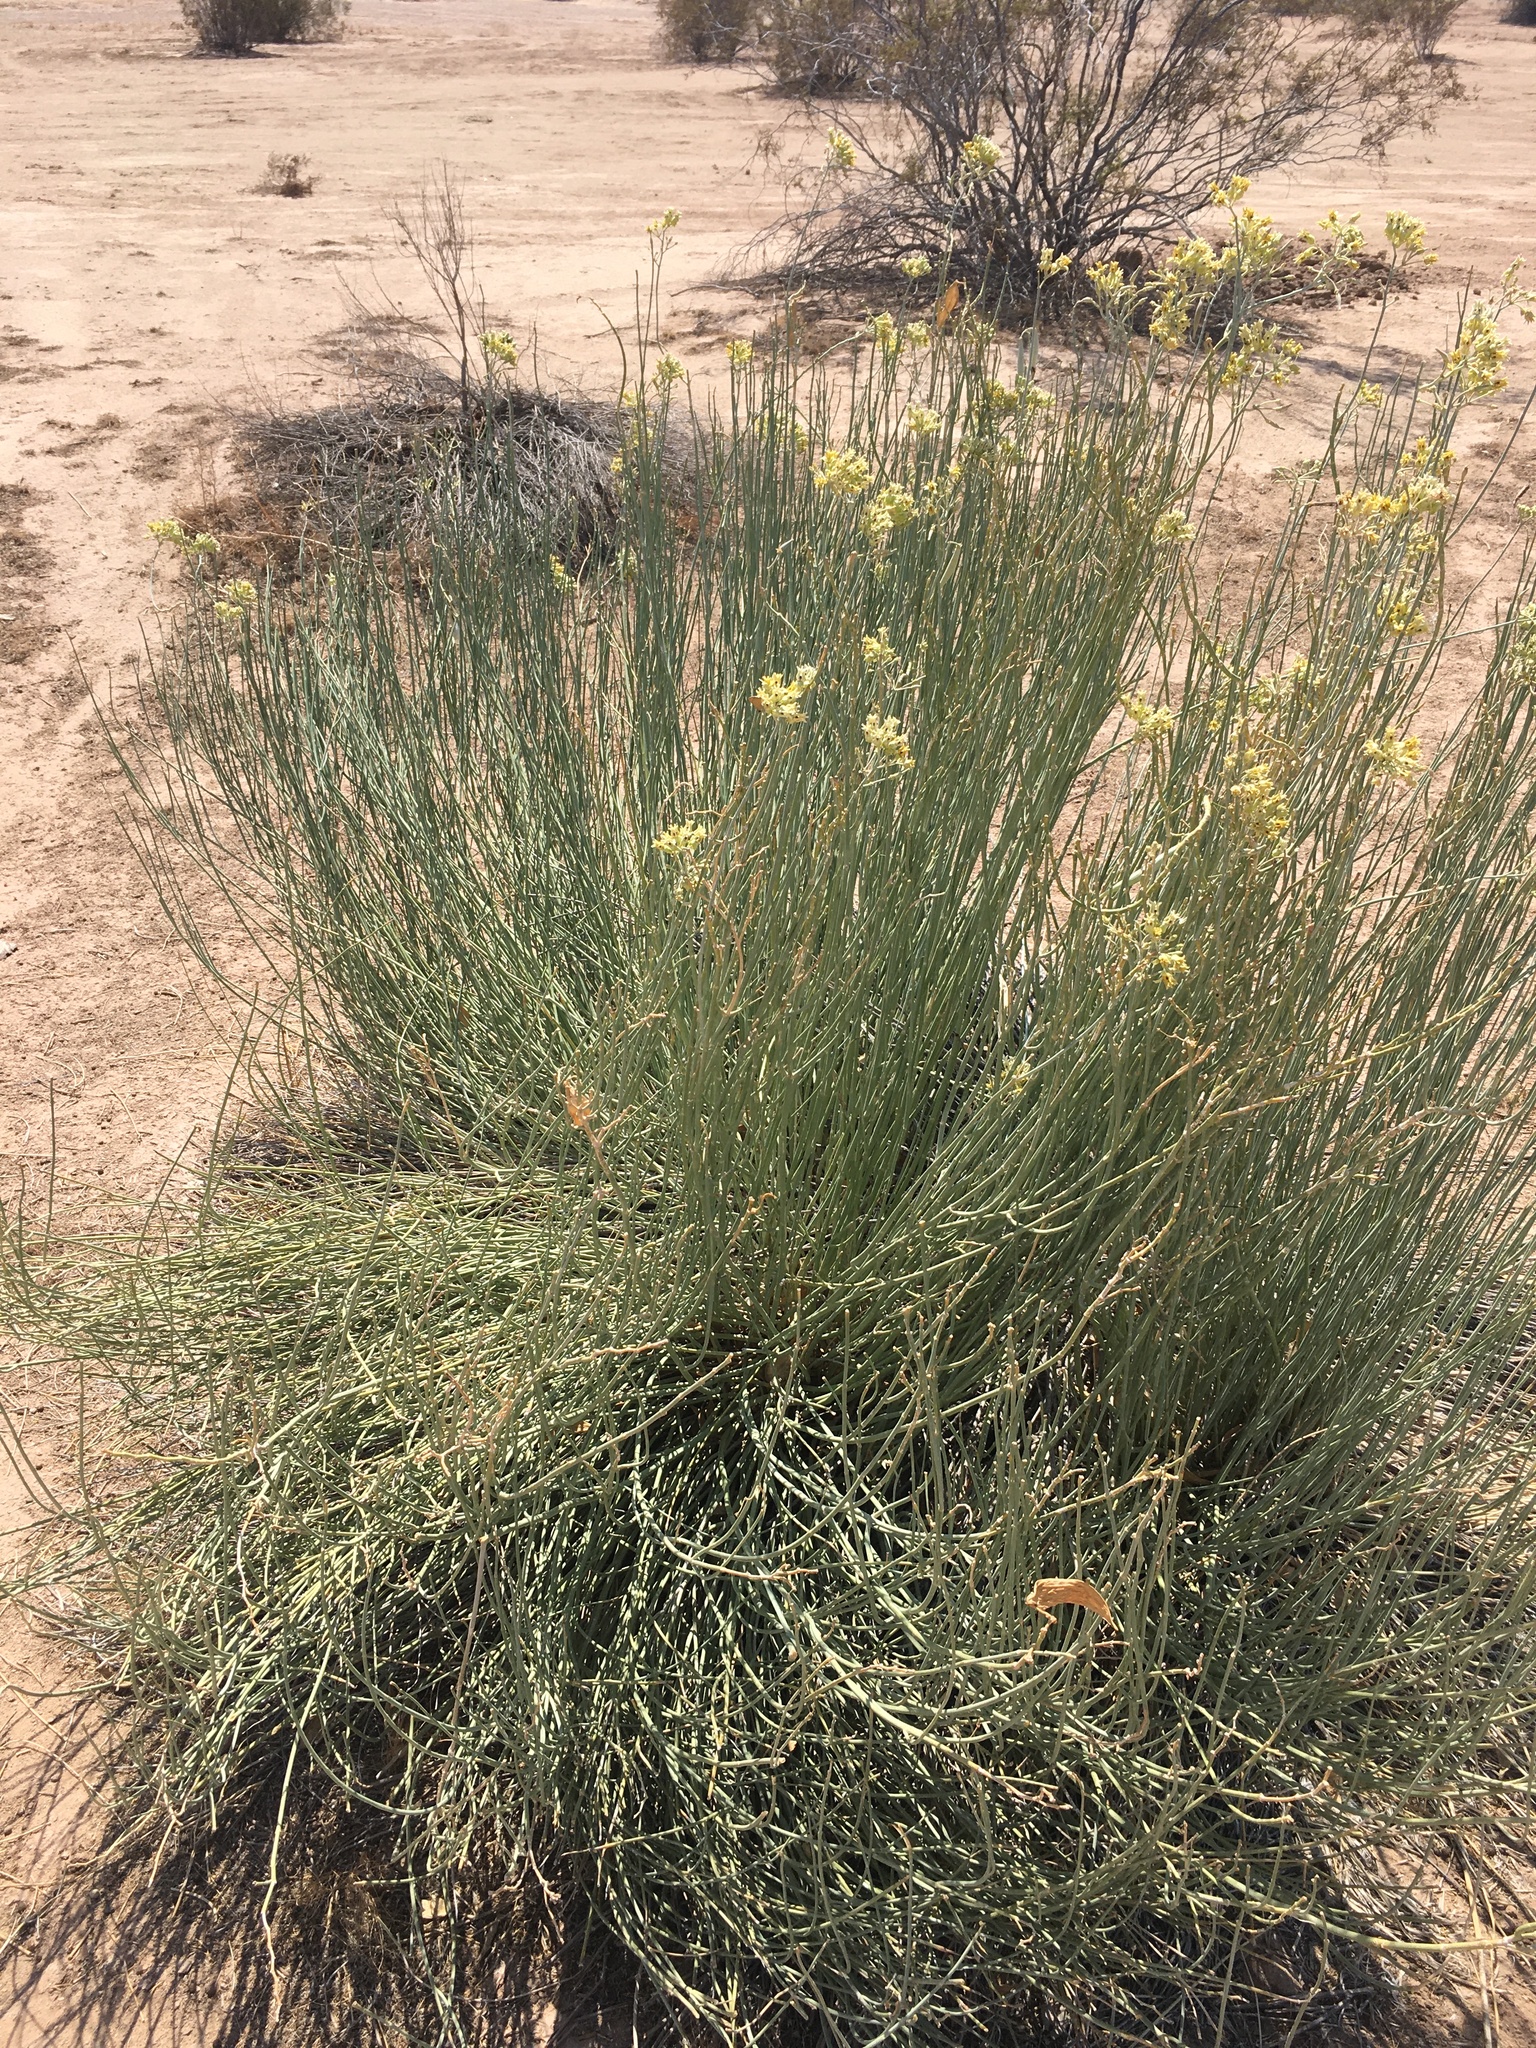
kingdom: Plantae
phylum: Tracheophyta
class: Magnoliopsida
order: Gentianales
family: Apocynaceae
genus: Asclepias
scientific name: Asclepias subulata
